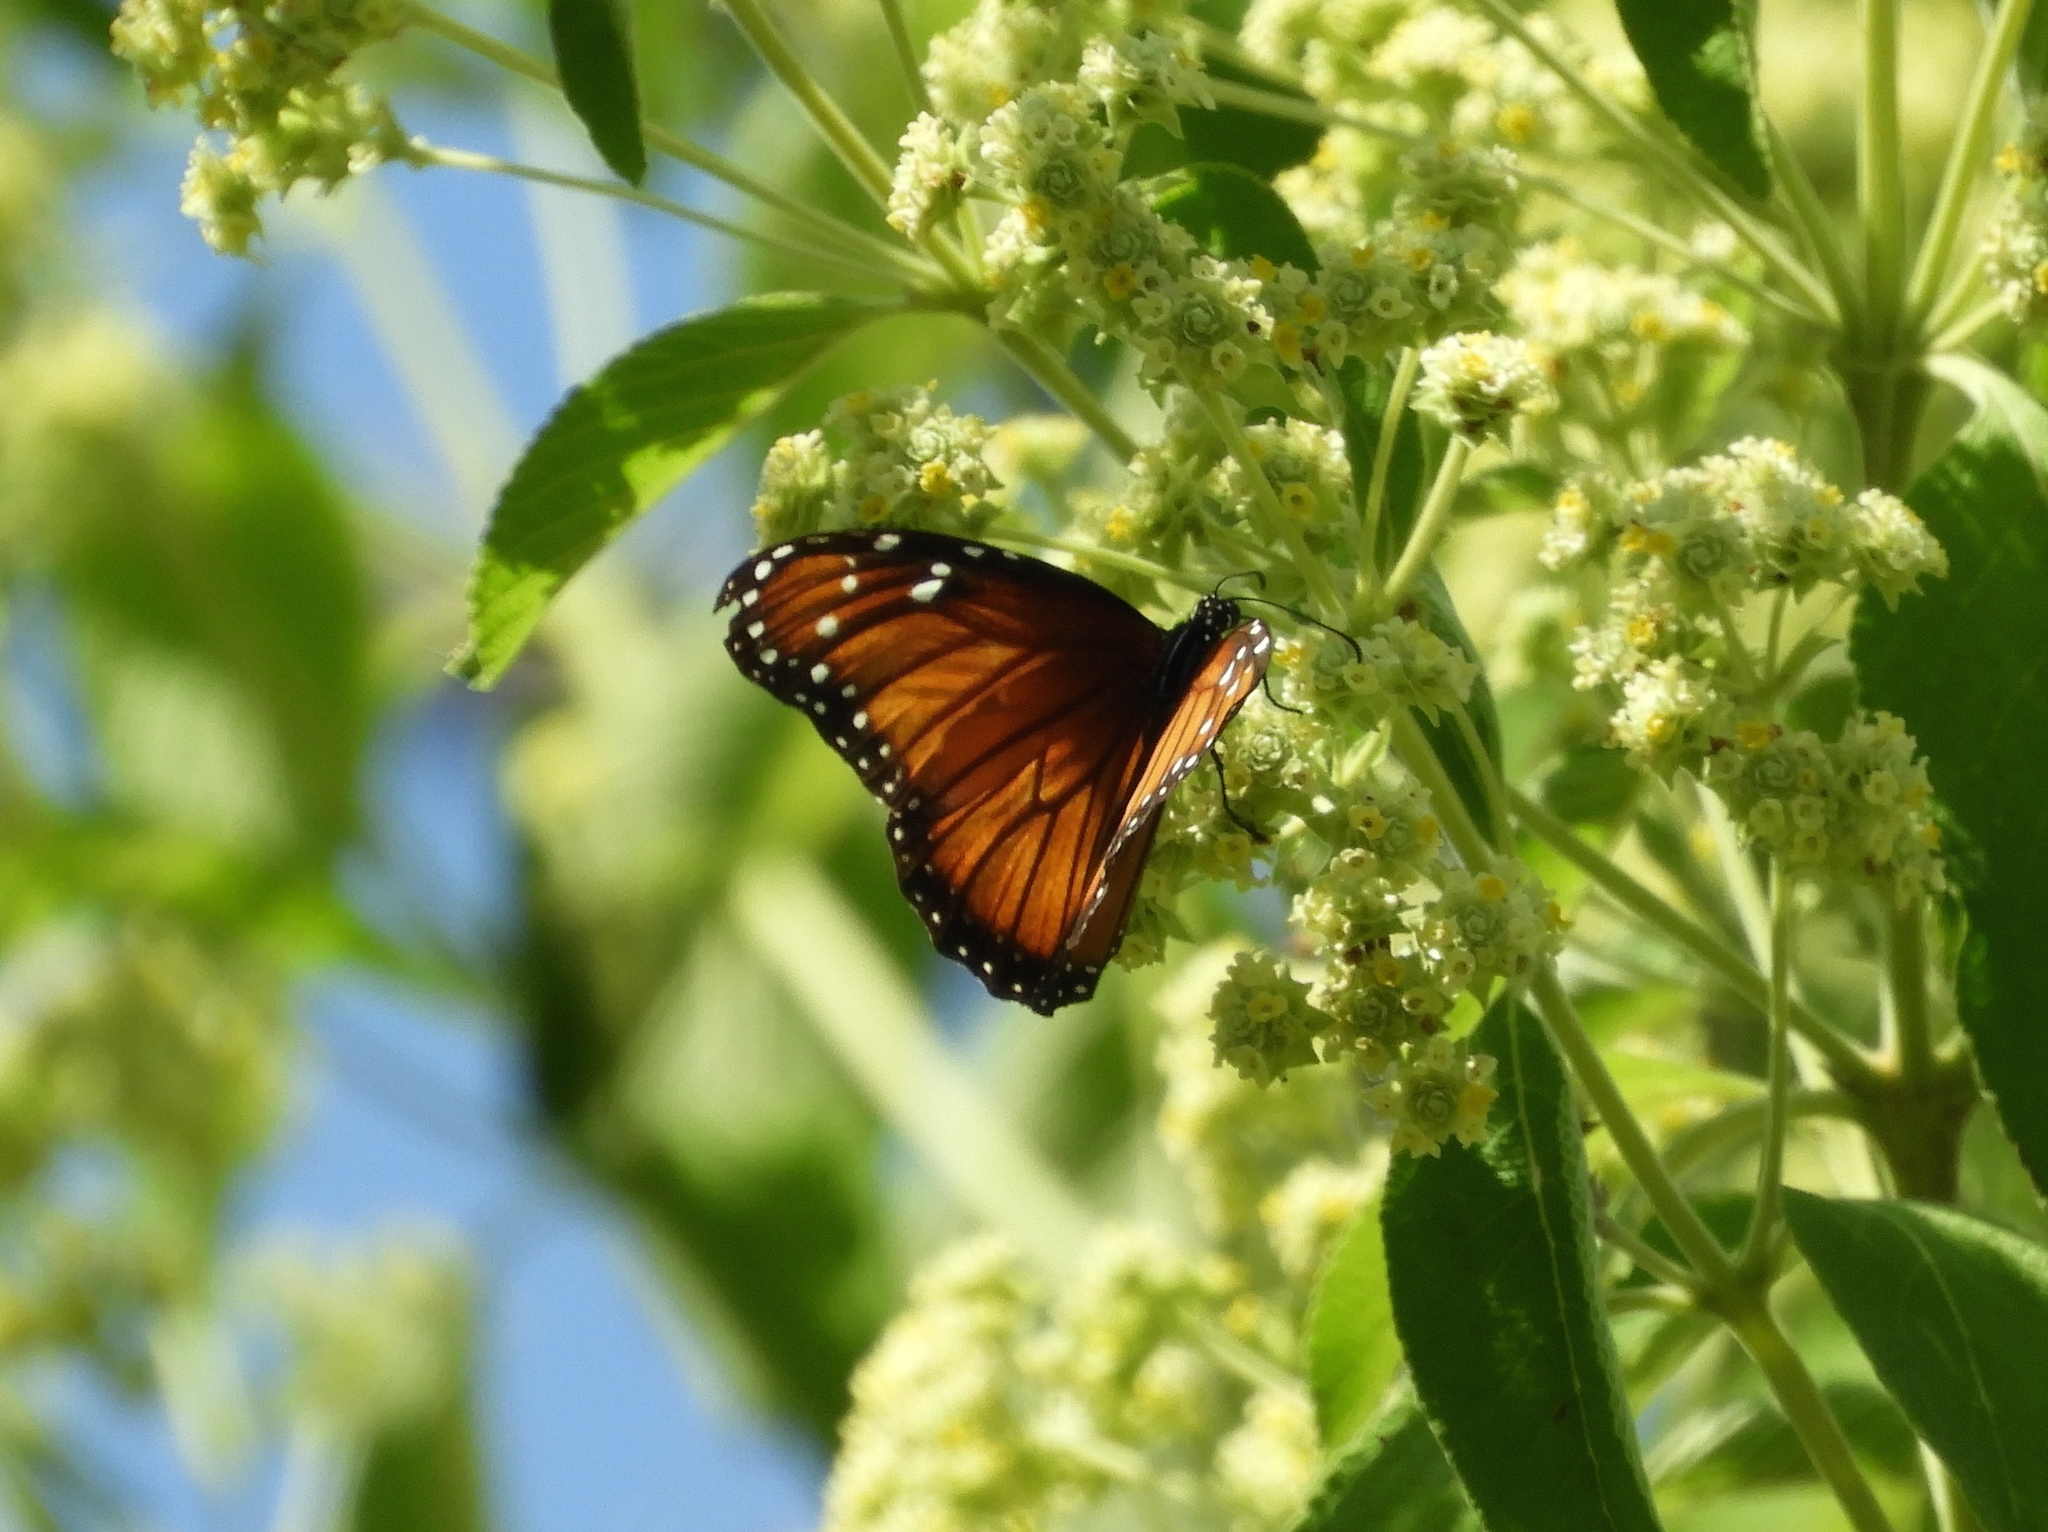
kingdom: Animalia
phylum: Arthropoda
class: Insecta
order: Lepidoptera
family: Nymphalidae
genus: Danaus
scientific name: Danaus eresimus
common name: Soldier
